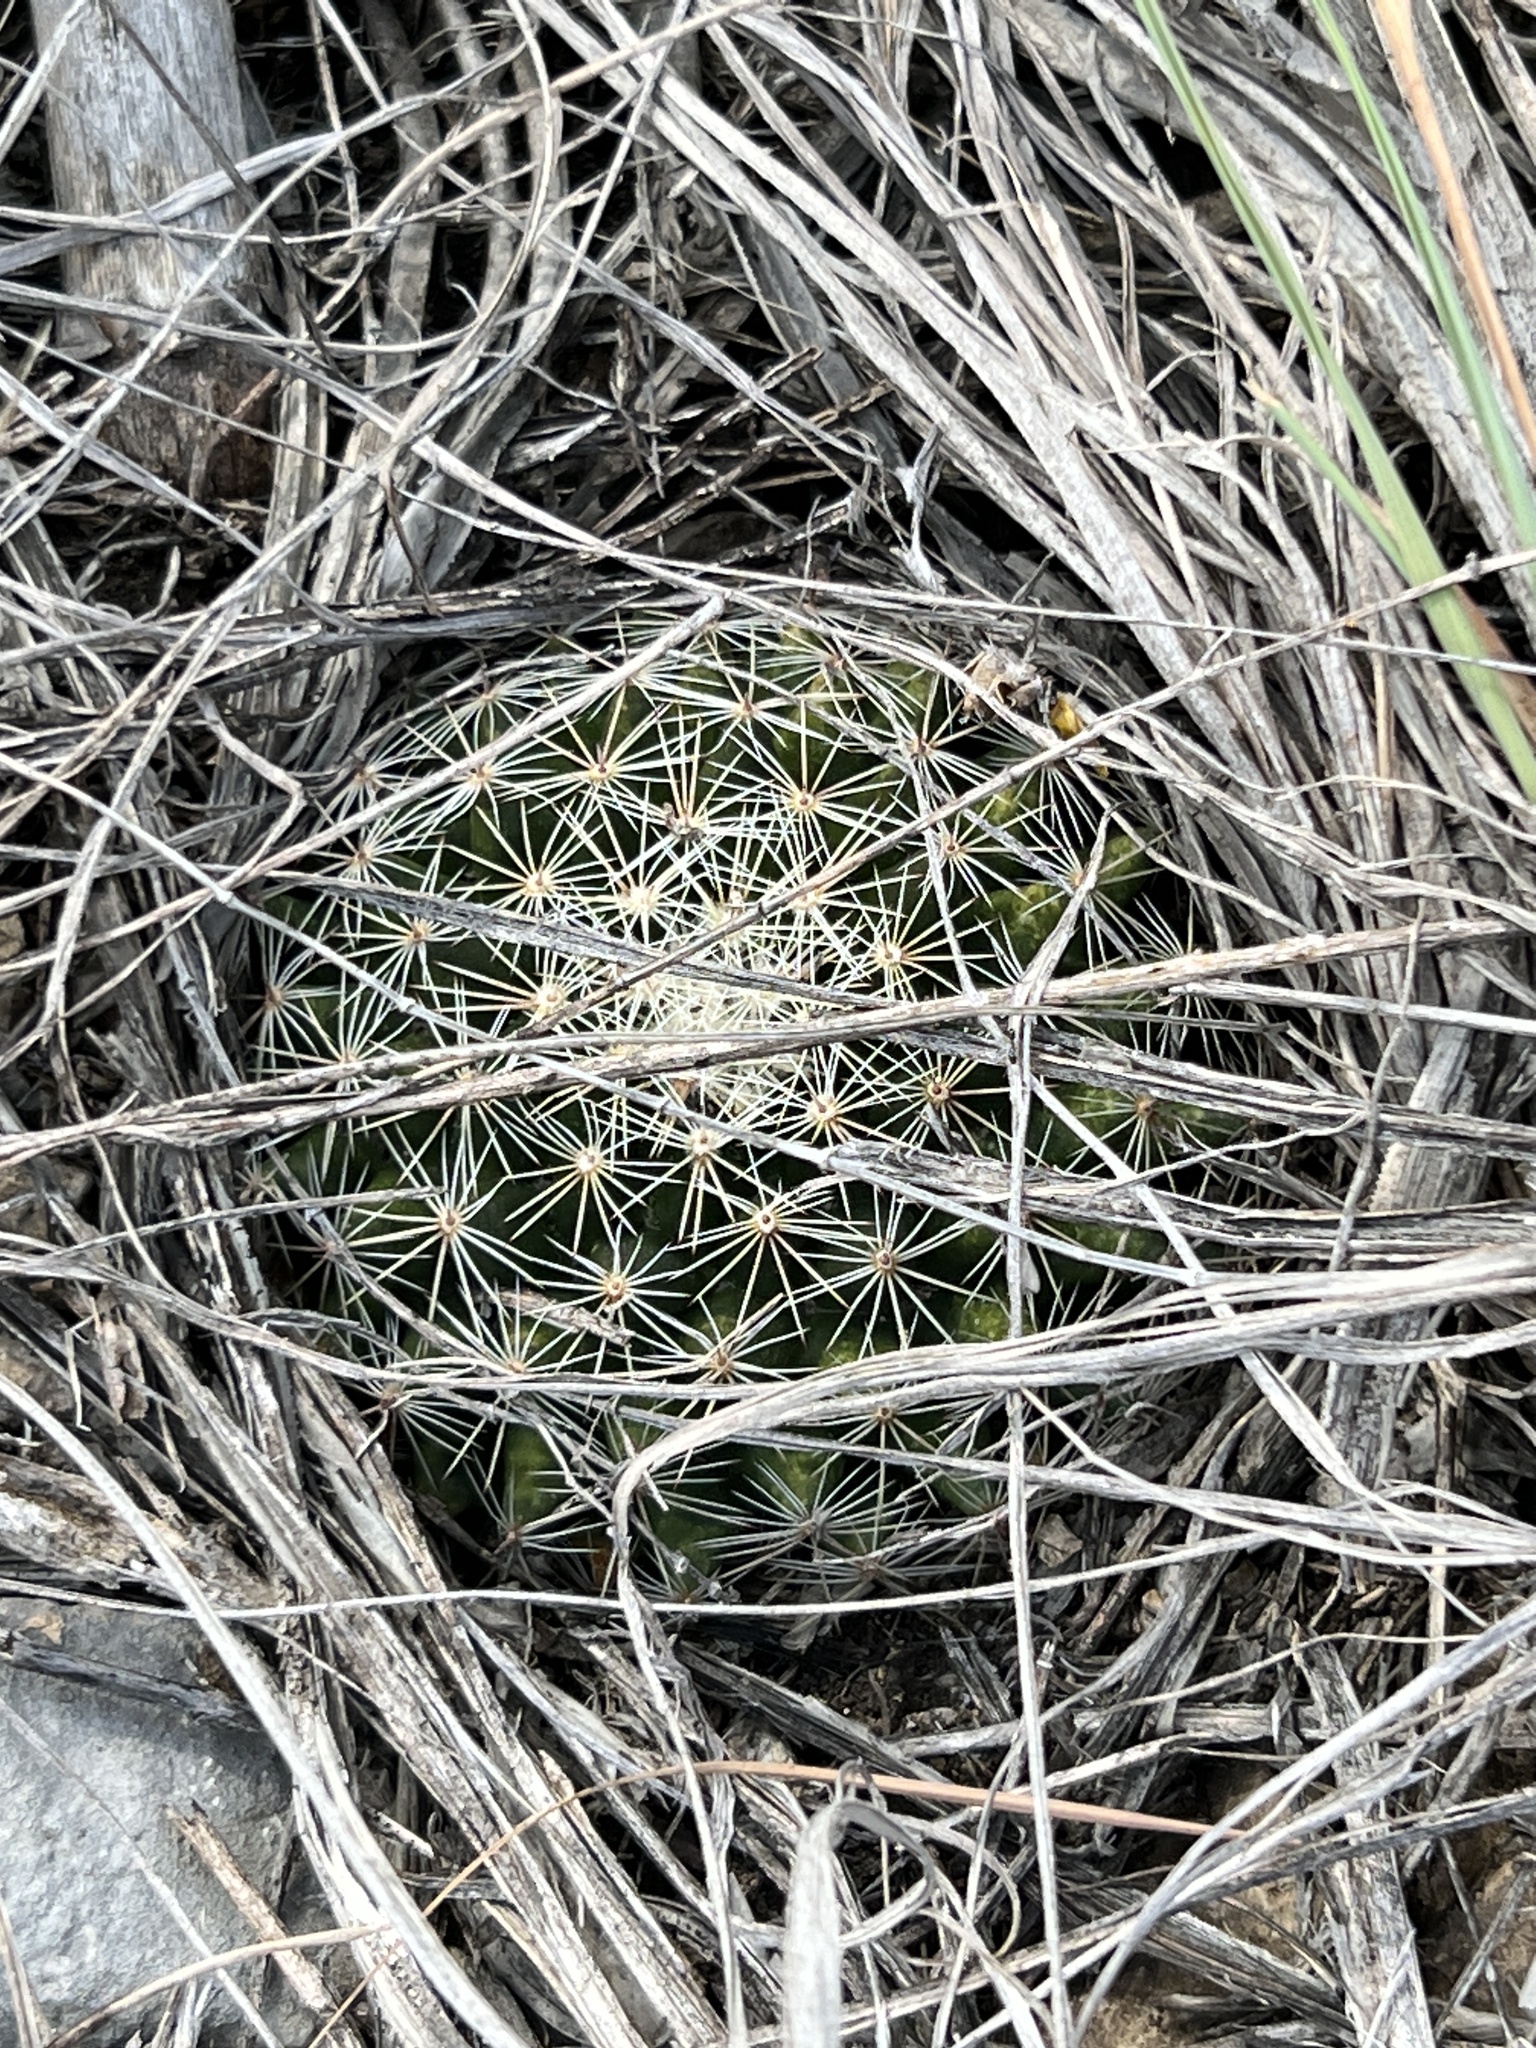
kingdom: Plantae
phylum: Tracheophyta
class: Magnoliopsida
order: Caryophyllales
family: Cactaceae
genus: Mammillaria
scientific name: Mammillaria heyderi
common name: Little nipple cactus
